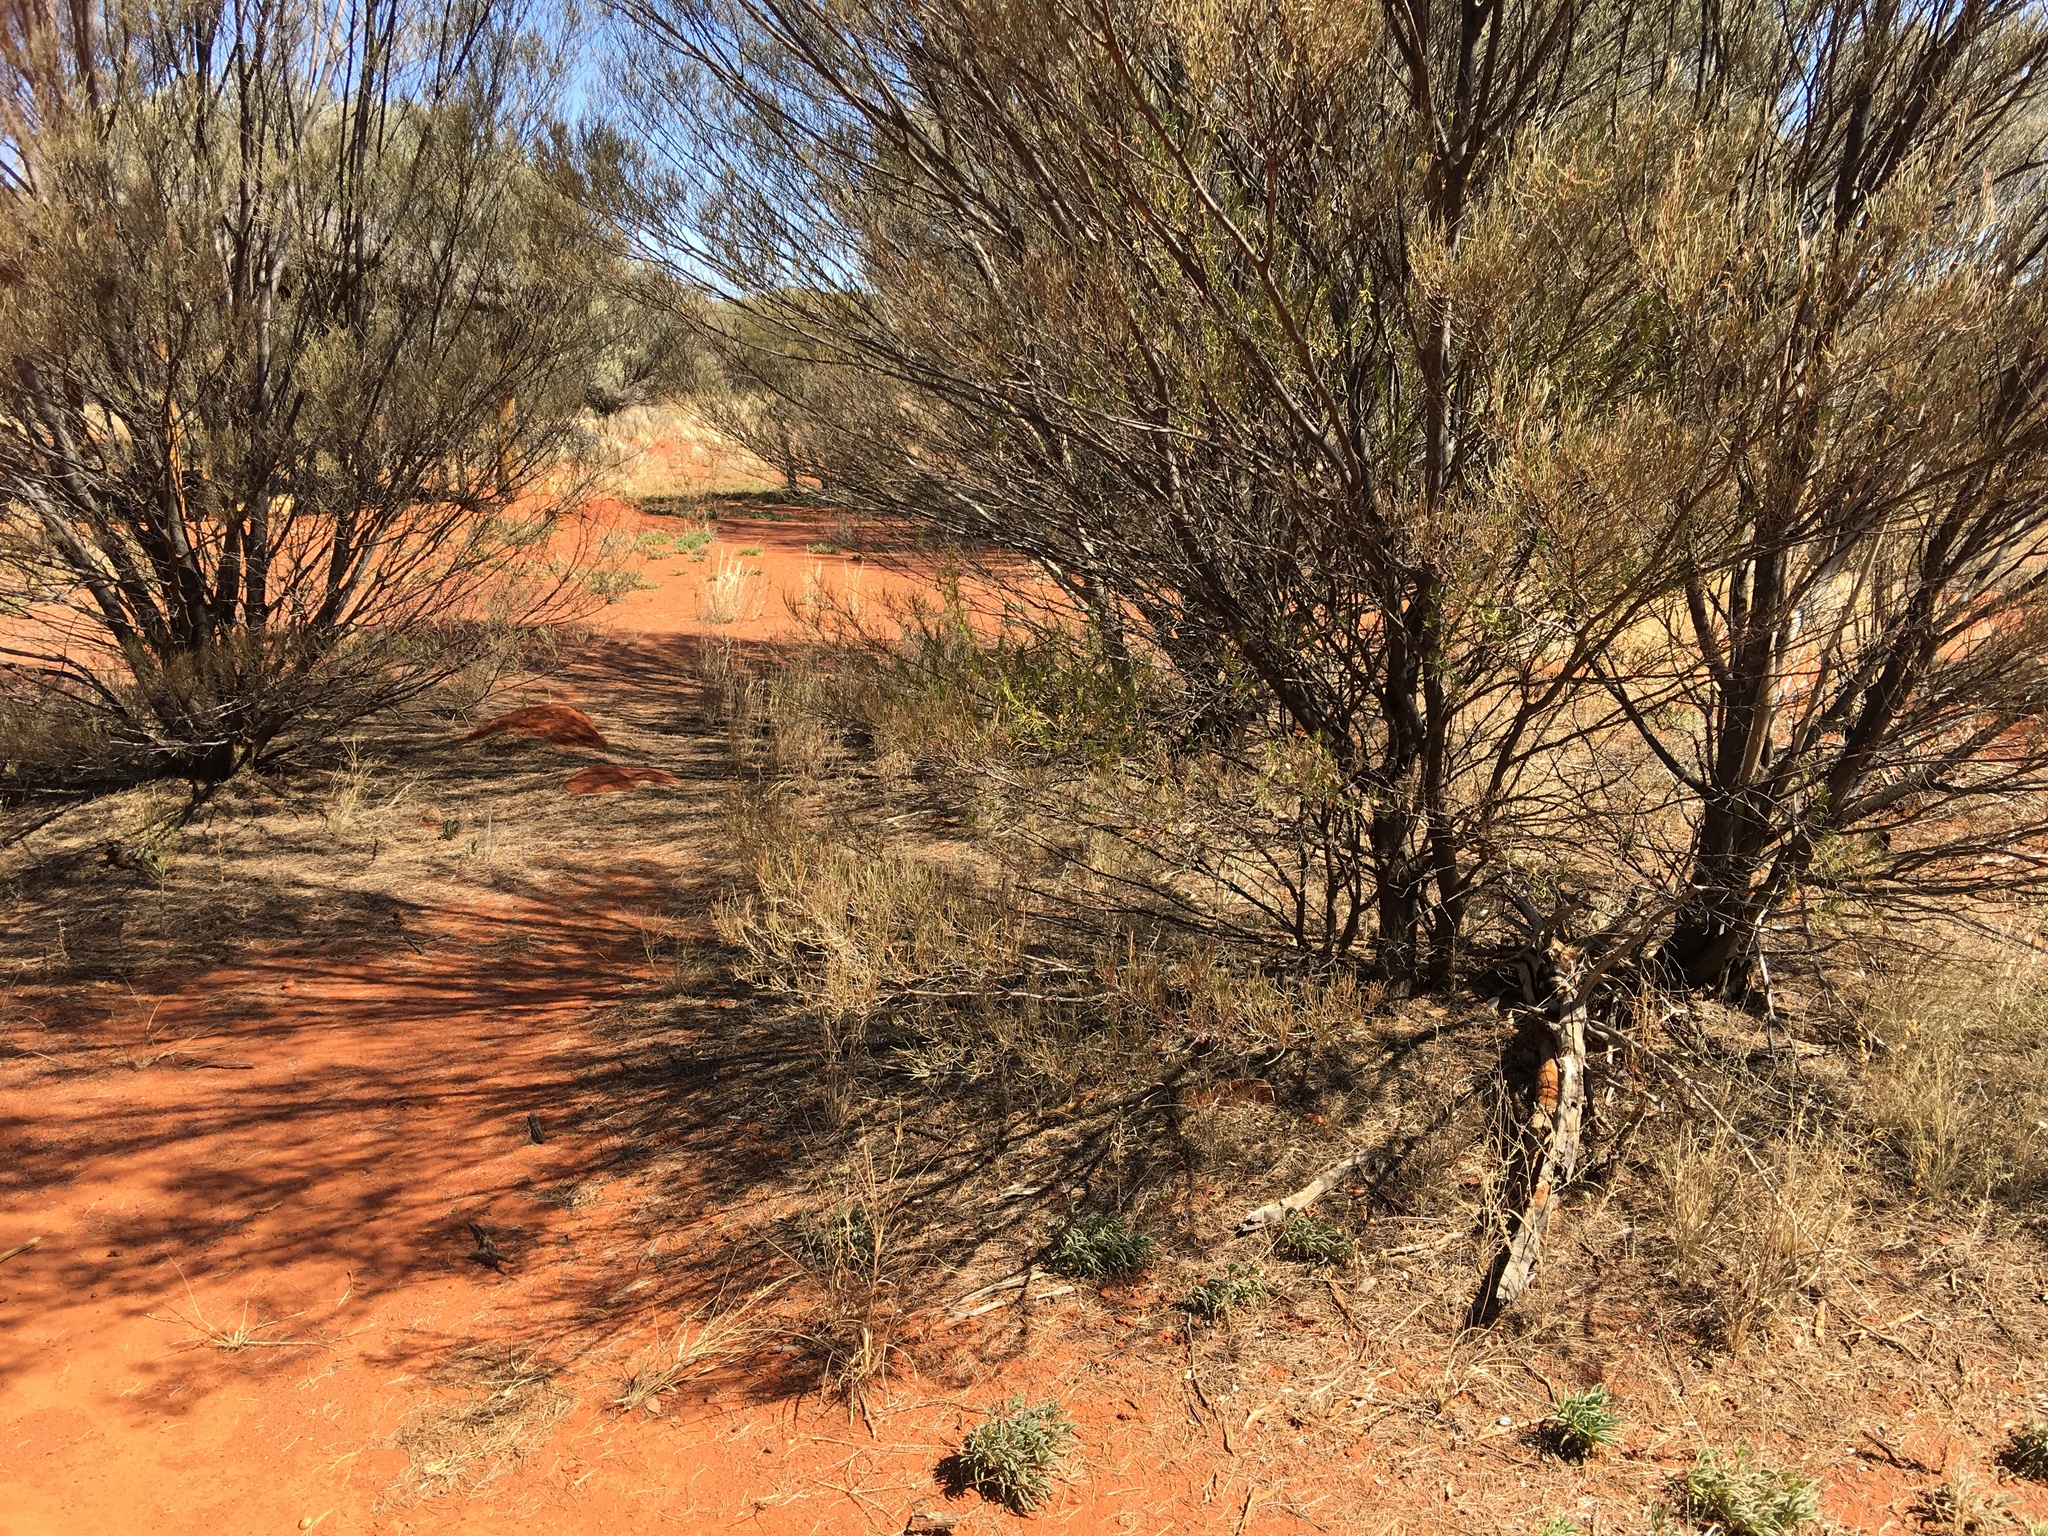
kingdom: Plantae
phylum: Tracheophyta
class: Magnoliopsida
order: Lamiales
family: Scrophulariaceae
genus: Eremophila
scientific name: Eremophila latrobei
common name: Crimson turkeybush
